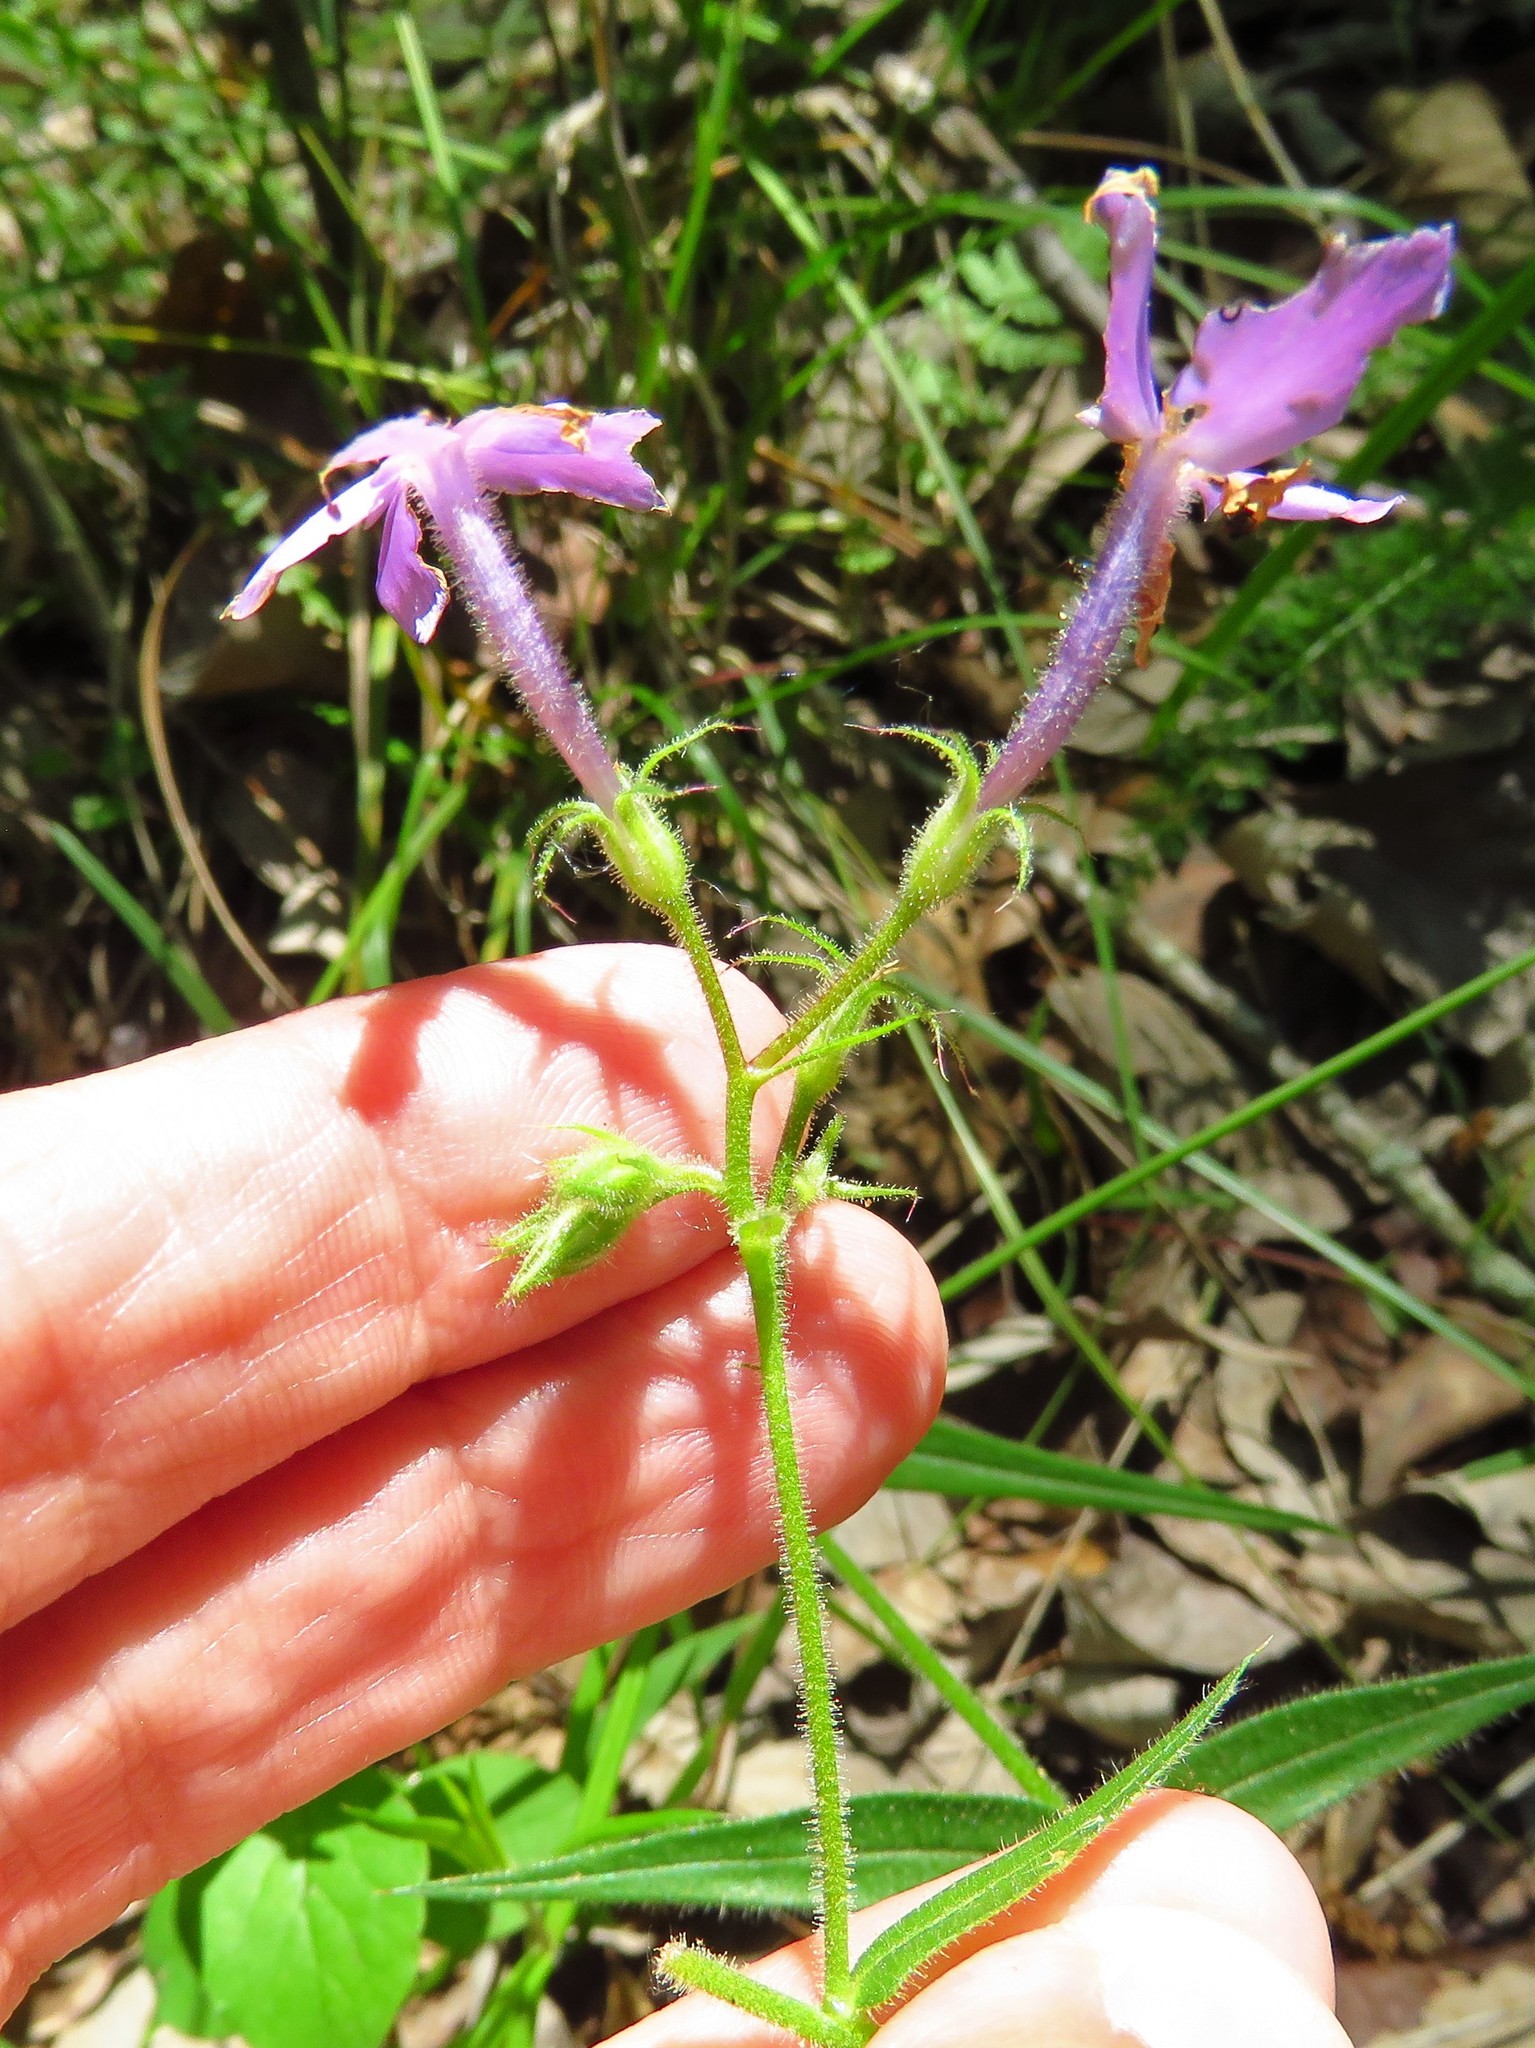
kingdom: Plantae
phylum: Tracheophyta
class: Magnoliopsida
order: Ericales
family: Polemoniaceae
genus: Phlox
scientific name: Phlox pilosa
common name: Prairie phlox
